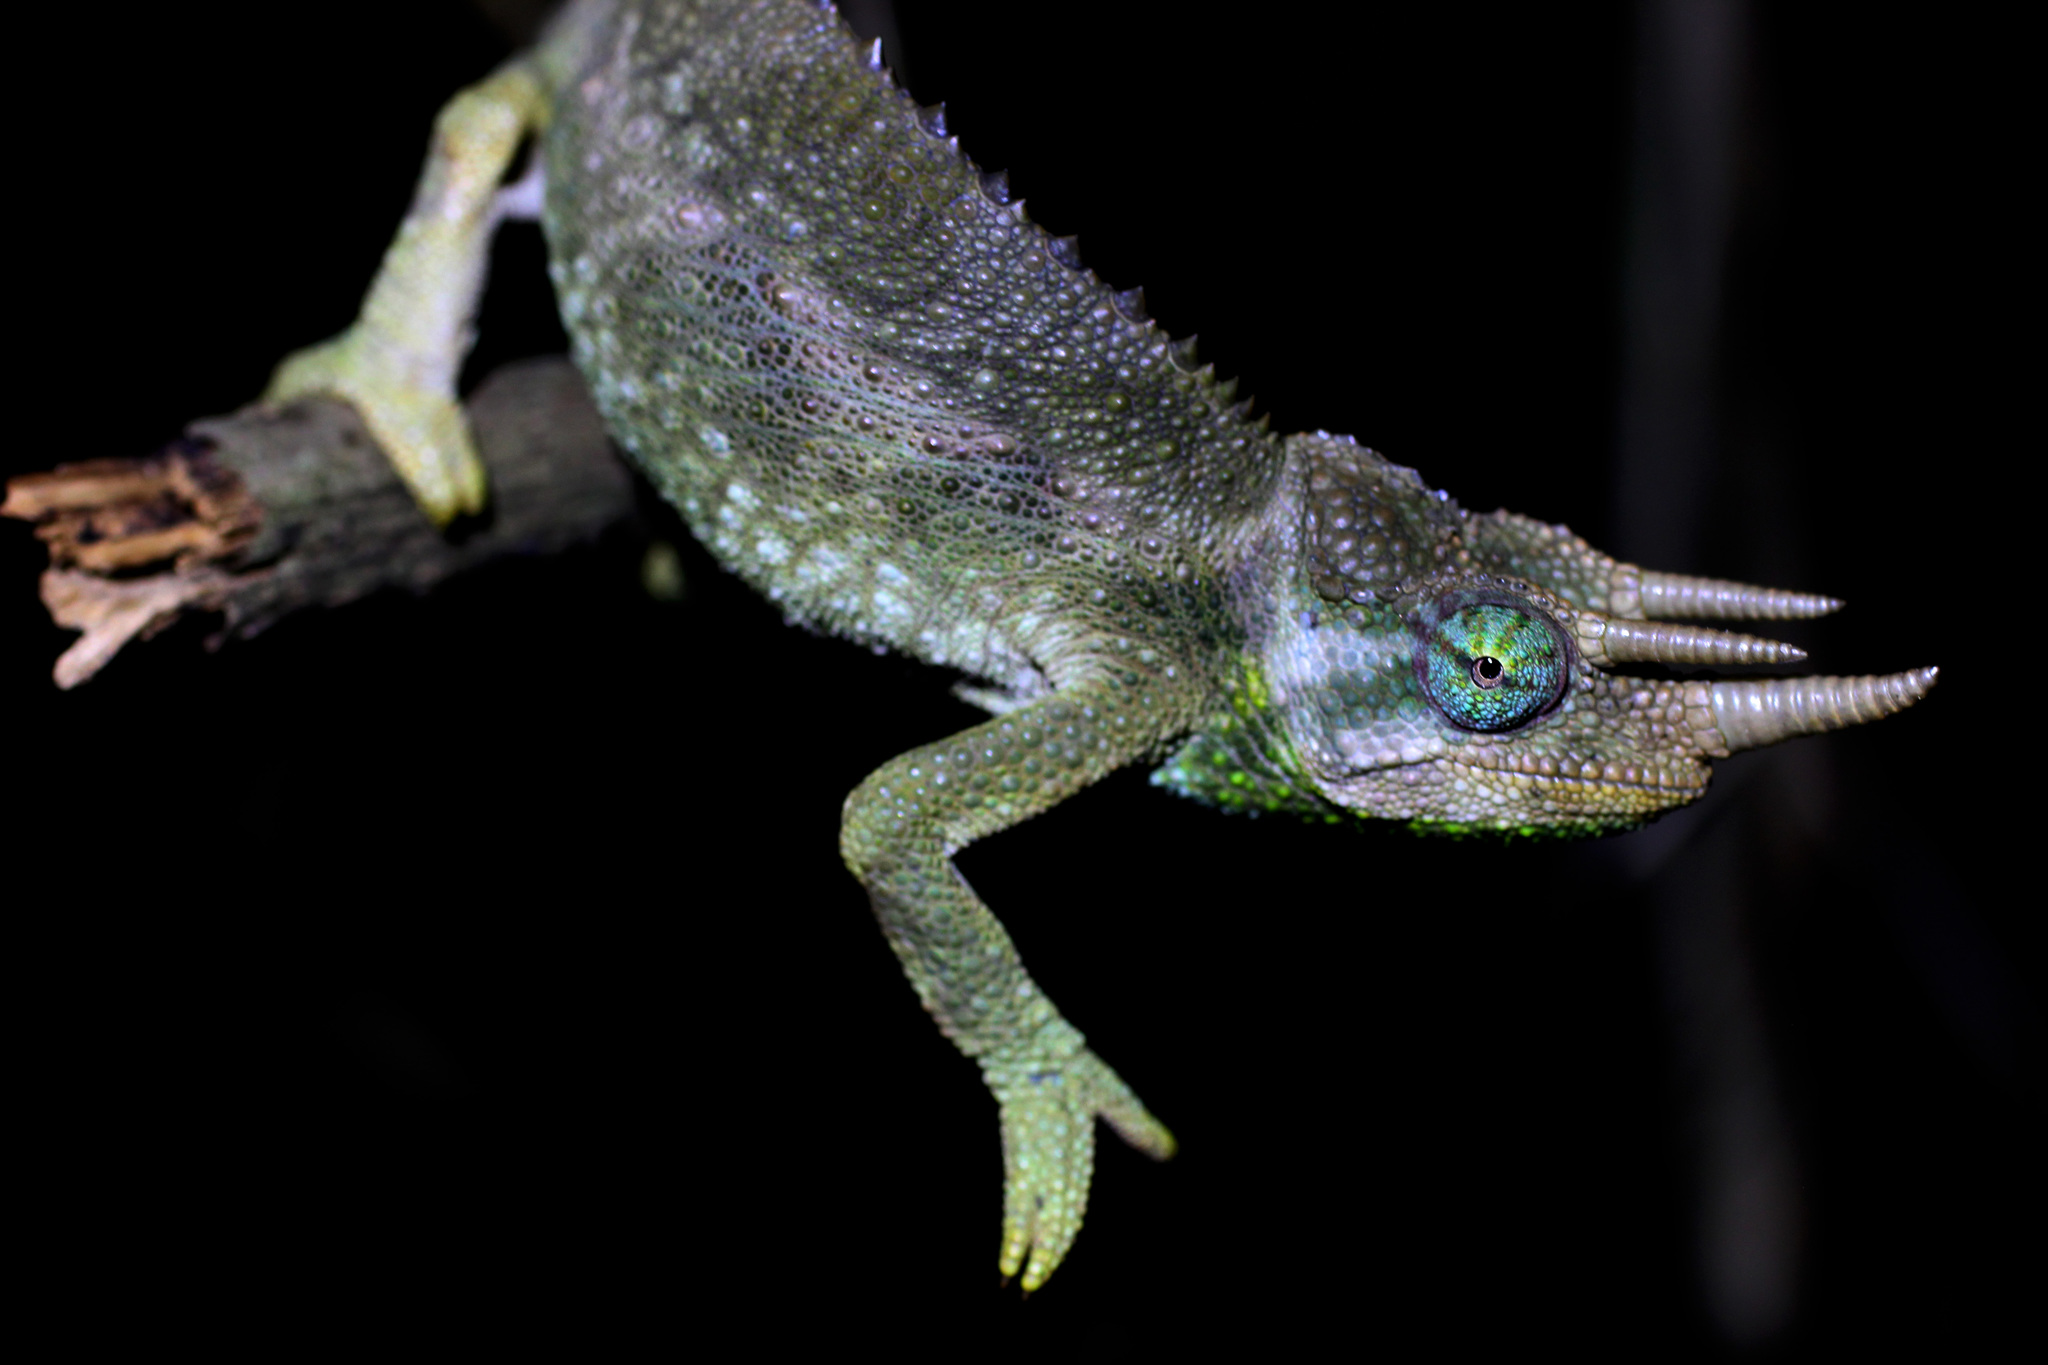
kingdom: Animalia
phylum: Chordata
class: Squamata
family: Chamaeleonidae
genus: Trioceros
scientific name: Trioceros jacksonii
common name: Jackson's chameleon
